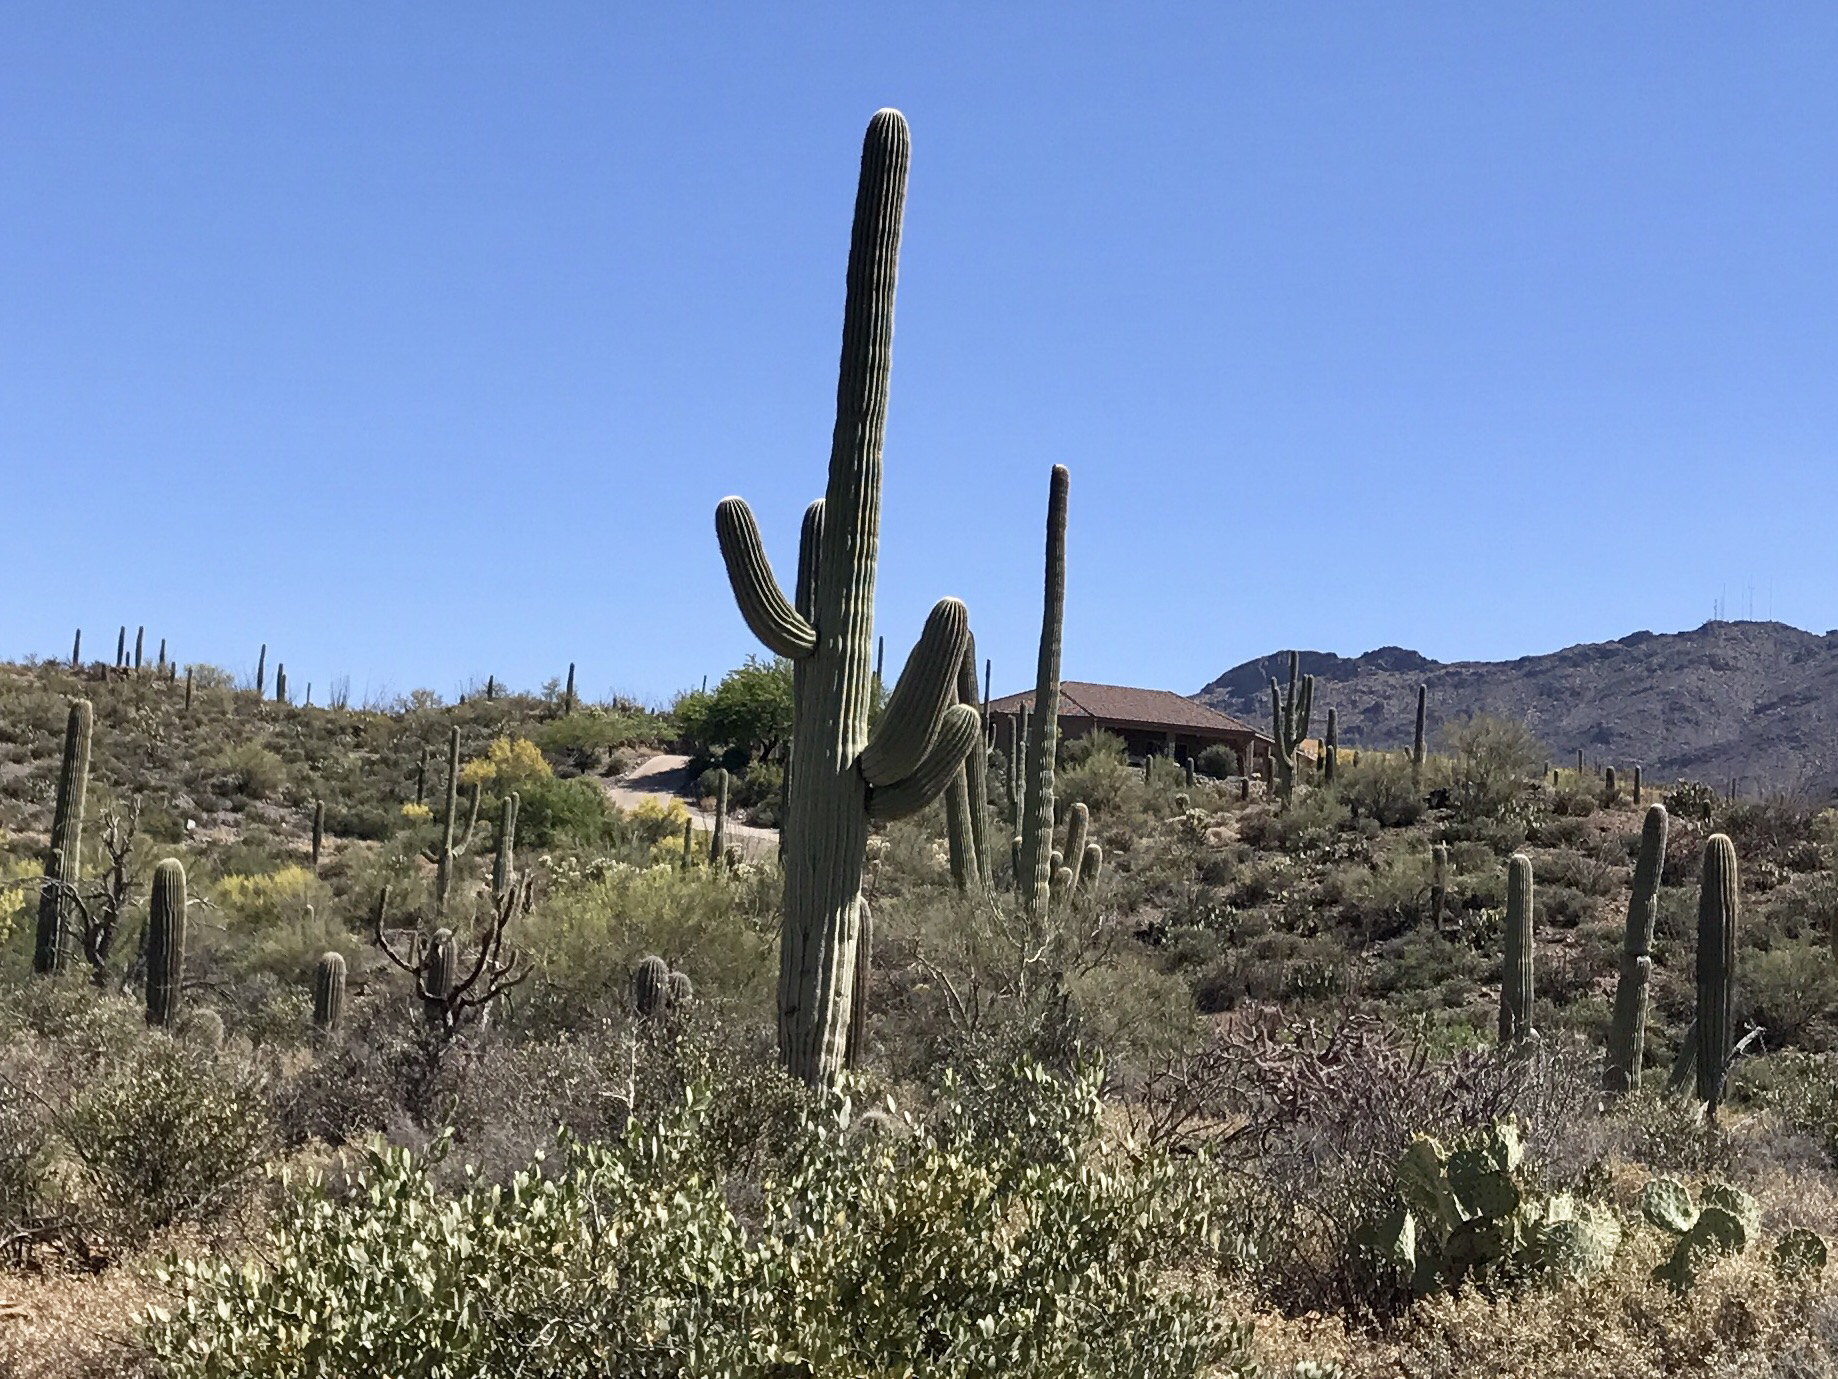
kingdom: Plantae
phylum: Tracheophyta
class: Magnoliopsida
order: Caryophyllales
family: Cactaceae
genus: Carnegiea
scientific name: Carnegiea gigantea
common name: Saguaro
